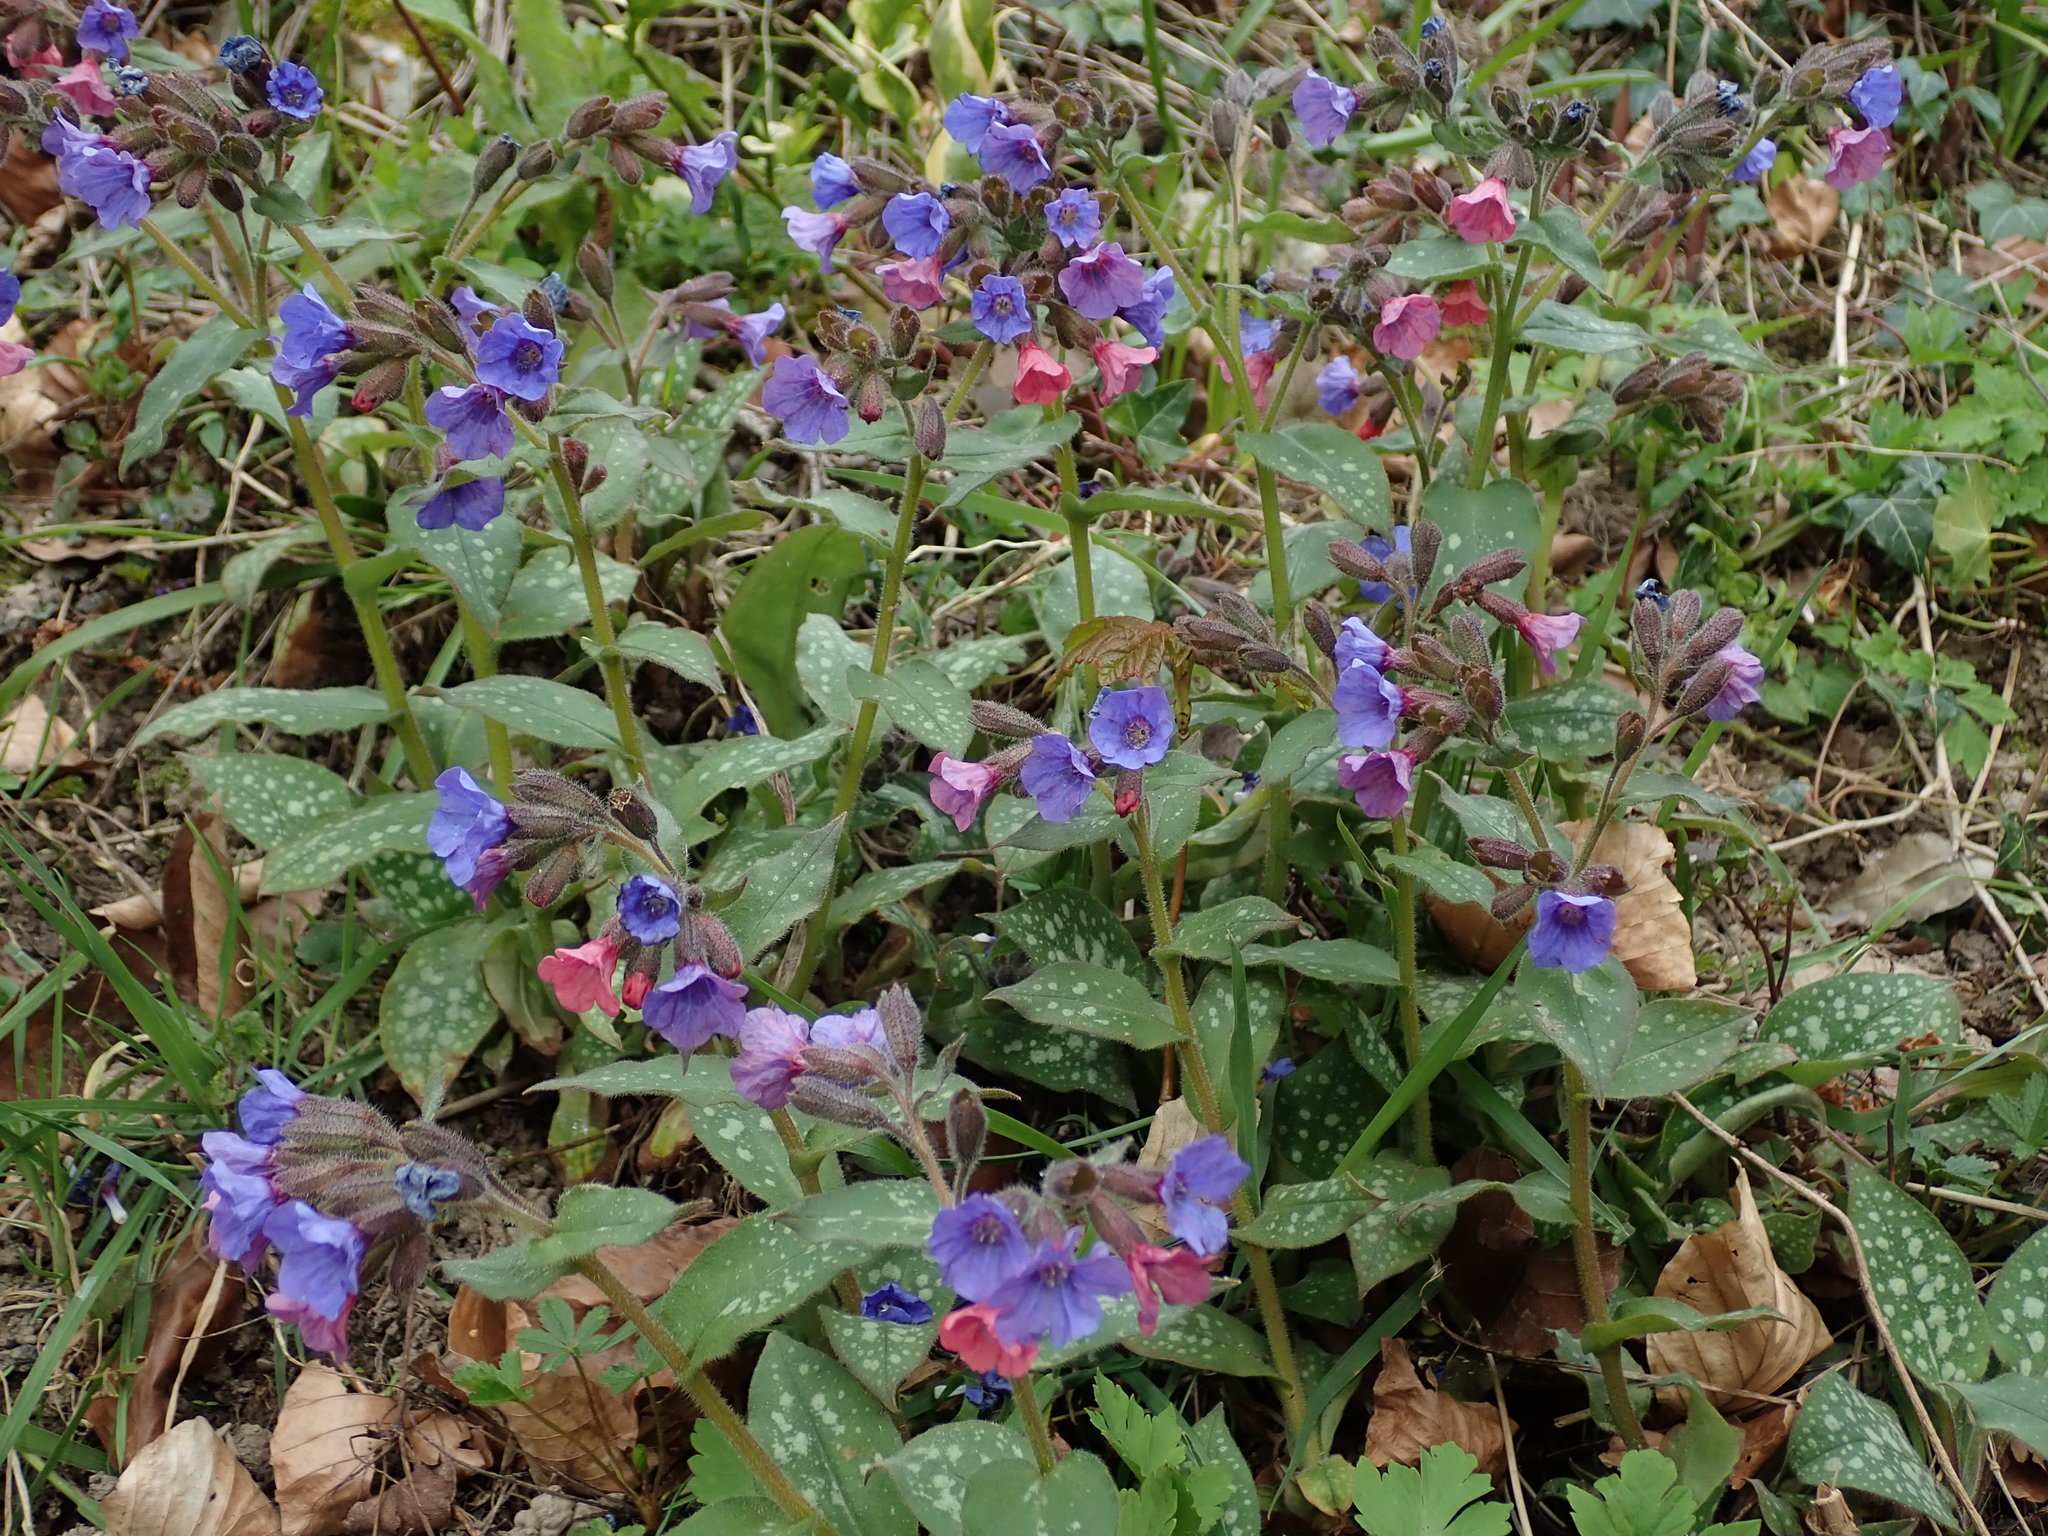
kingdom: Plantae
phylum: Tracheophyta
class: Magnoliopsida
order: Boraginales
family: Boraginaceae
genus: Pulmonaria
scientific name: Pulmonaria officinalis
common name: Lungwort
